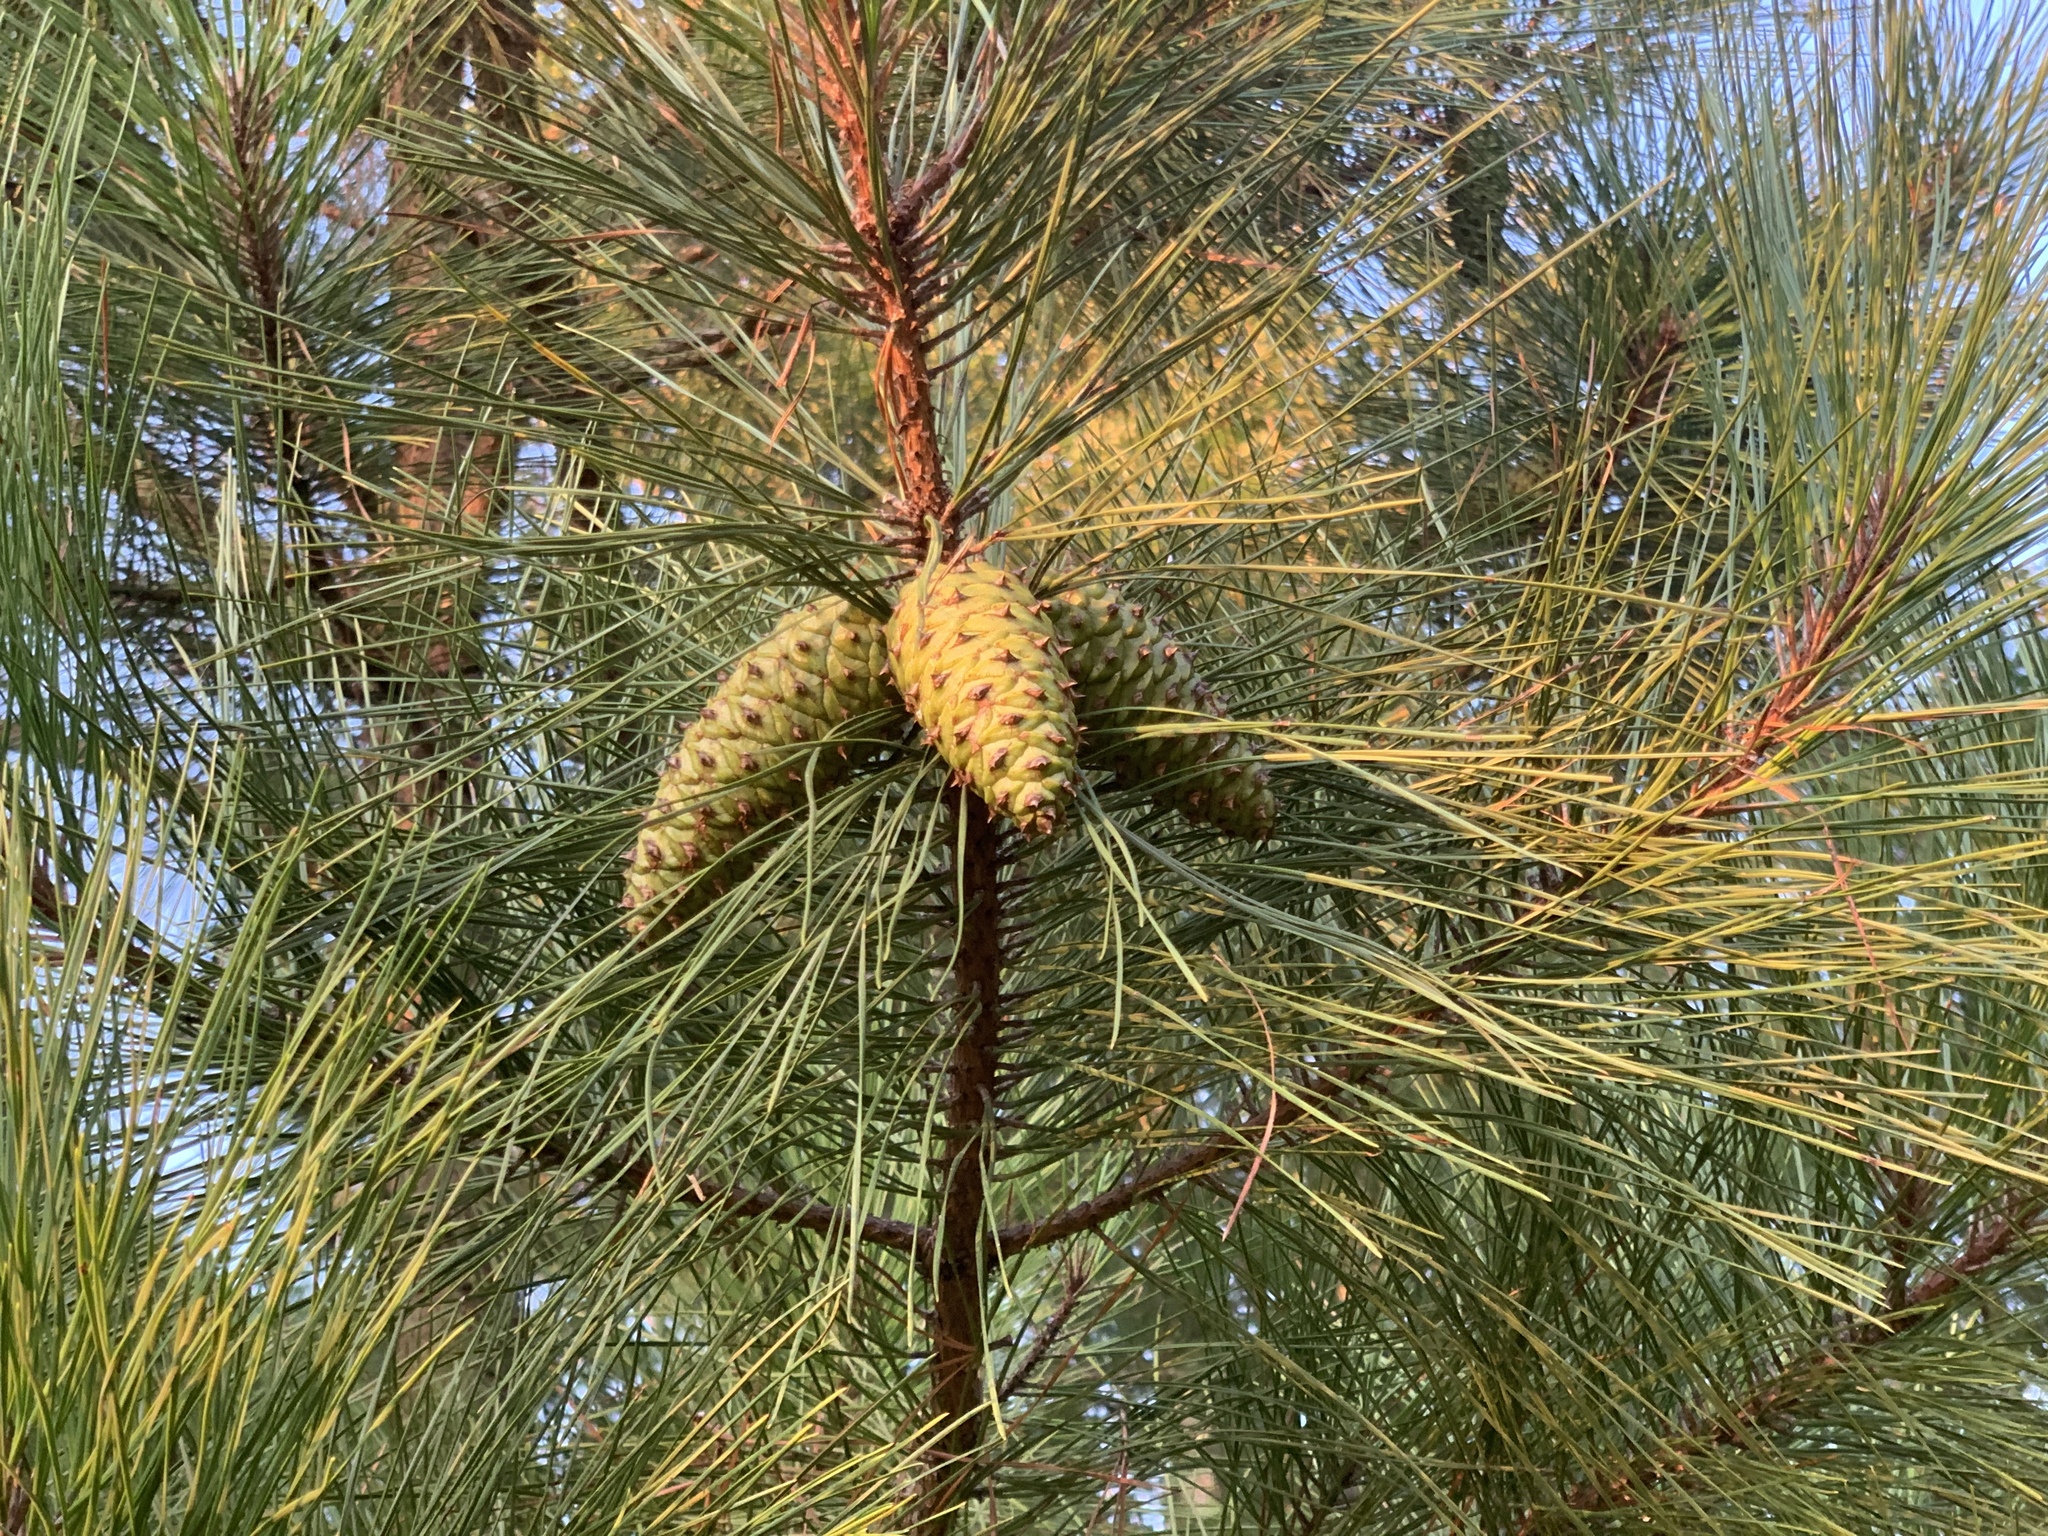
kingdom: Plantae
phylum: Tracheophyta
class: Pinopsida
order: Pinales
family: Pinaceae
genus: Pinus
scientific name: Pinus taeda
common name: Loblolly pine
